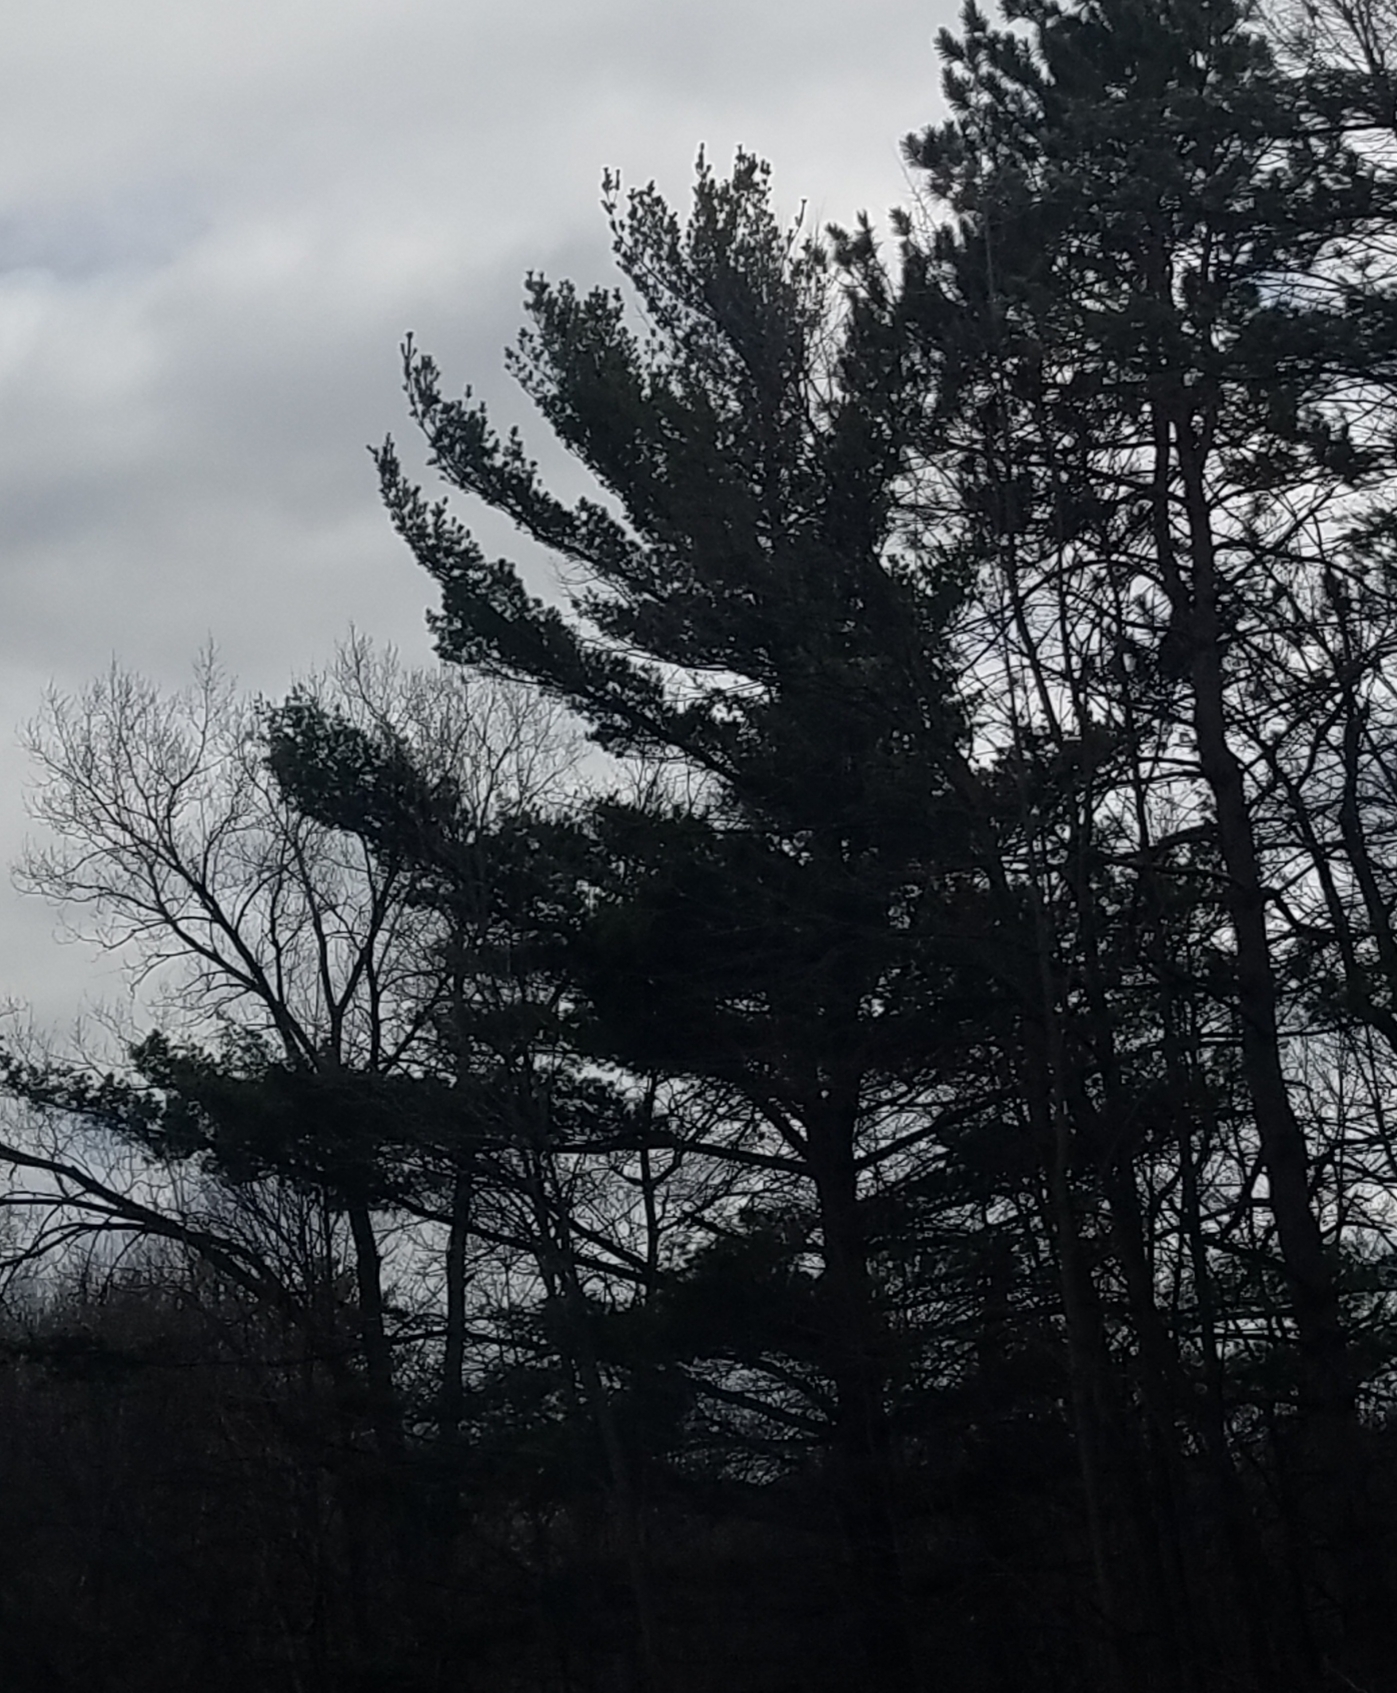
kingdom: Plantae
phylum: Tracheophyta
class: Pinopsida
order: Pinales
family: Pinaceae
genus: Pinus
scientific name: Pinus strobus
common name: Weymouth pine
